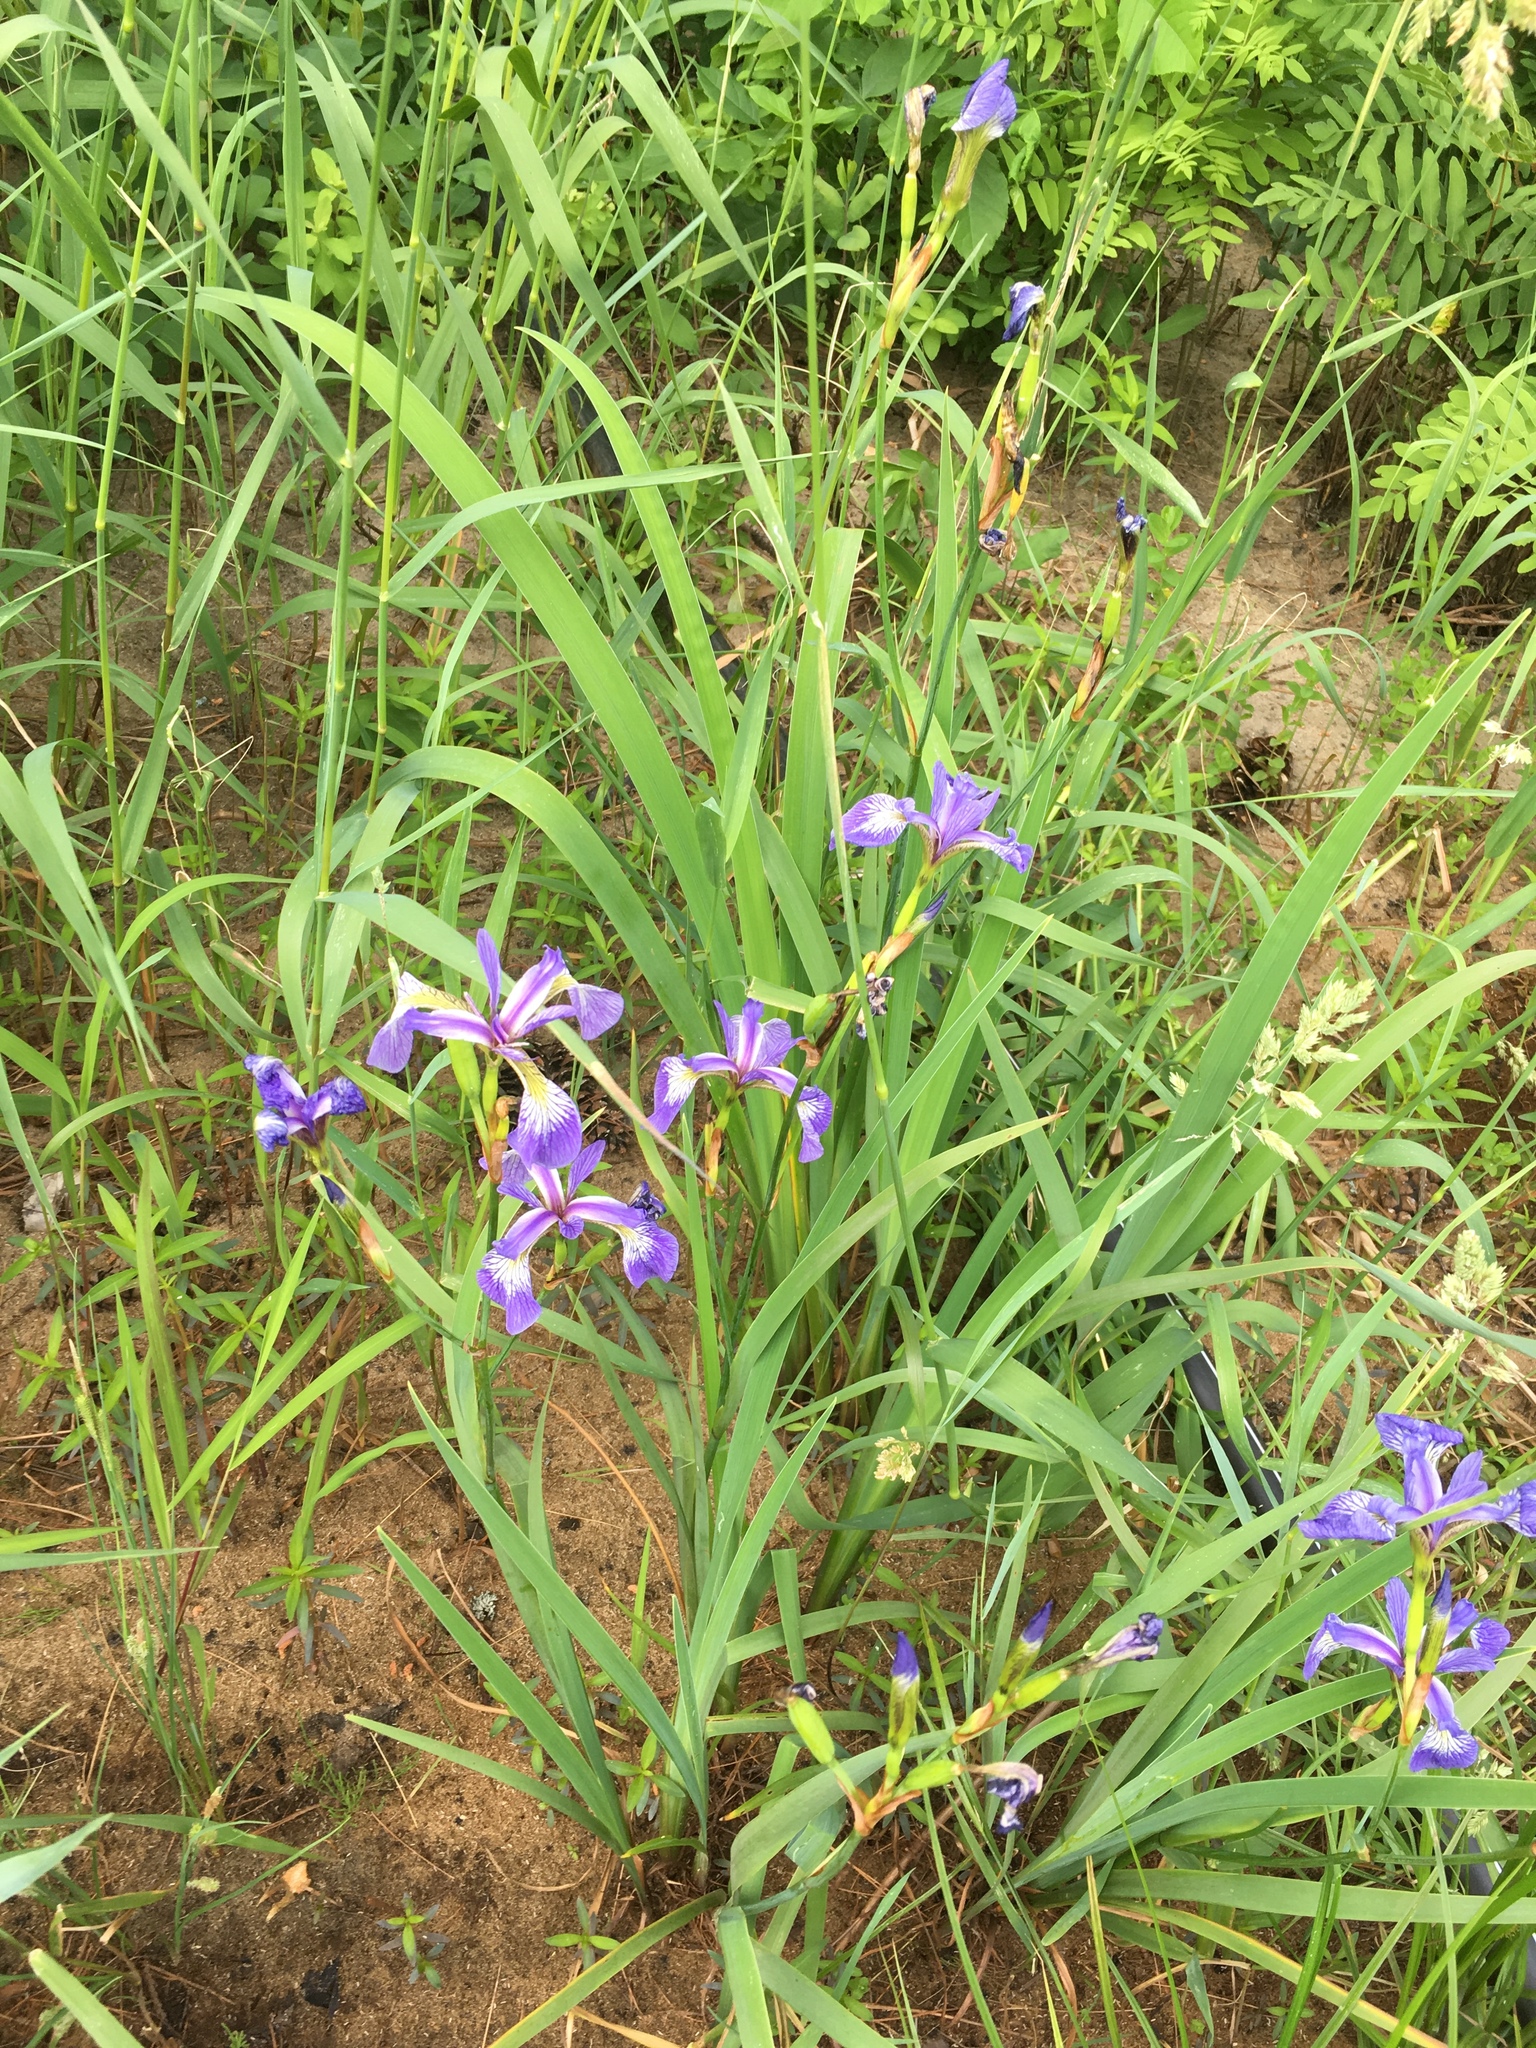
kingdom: Plantae
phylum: Tracheophyta
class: Liliopsida
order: Asparagales
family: Iridaceae
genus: Iris
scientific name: Iris versicolor
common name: Purple iris
